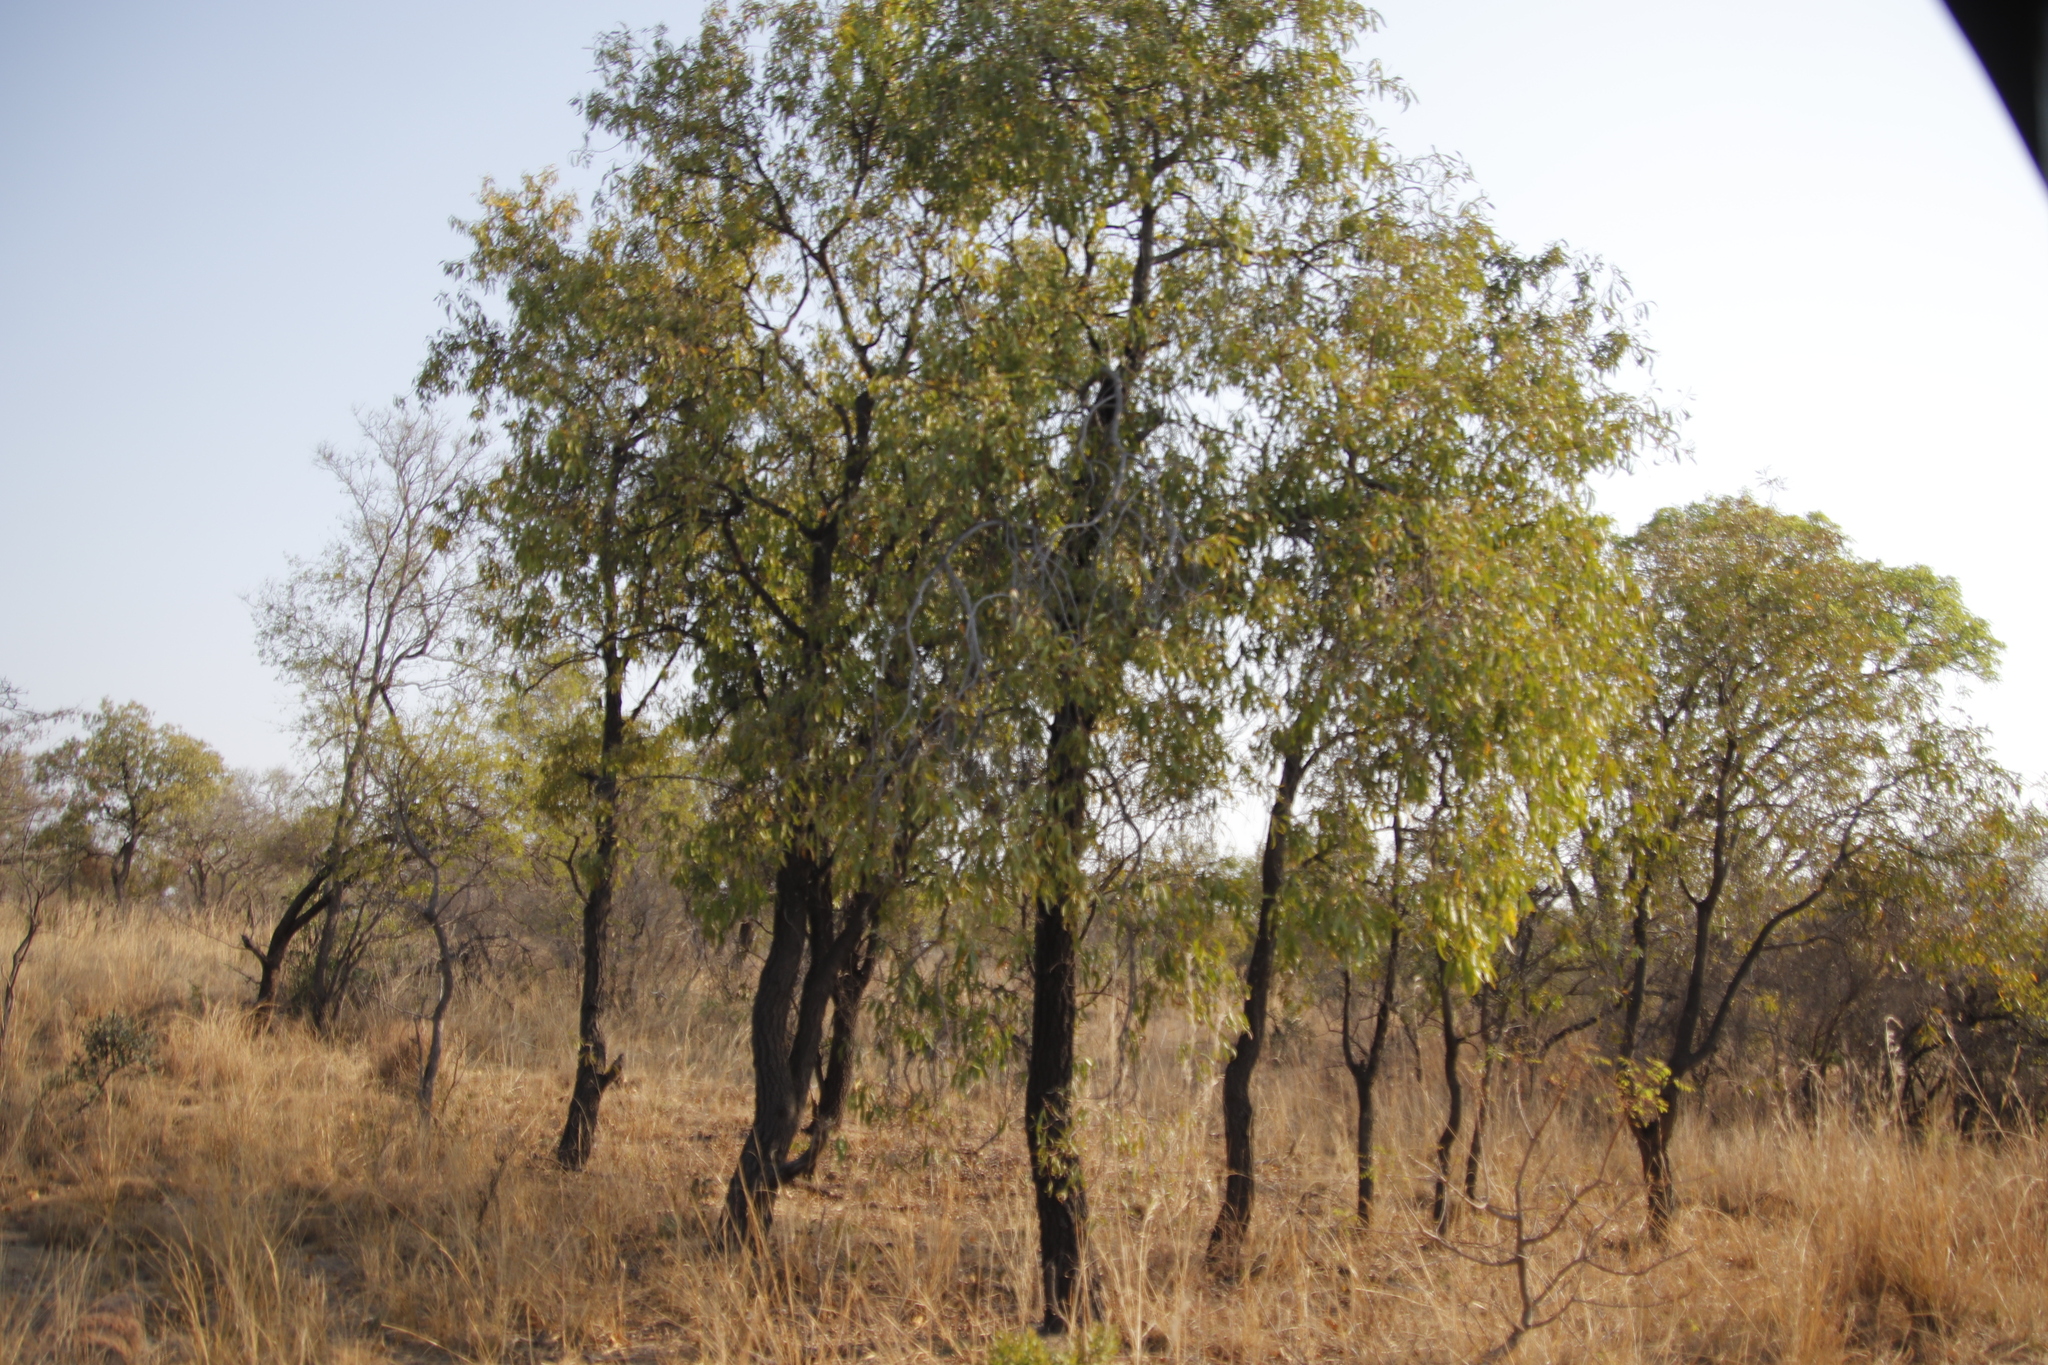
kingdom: Plantae
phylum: Tracheophyta
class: Magnoliopsida
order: Proteales
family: Proteaceae
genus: Faurea
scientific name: Faurea saligna
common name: African bean
